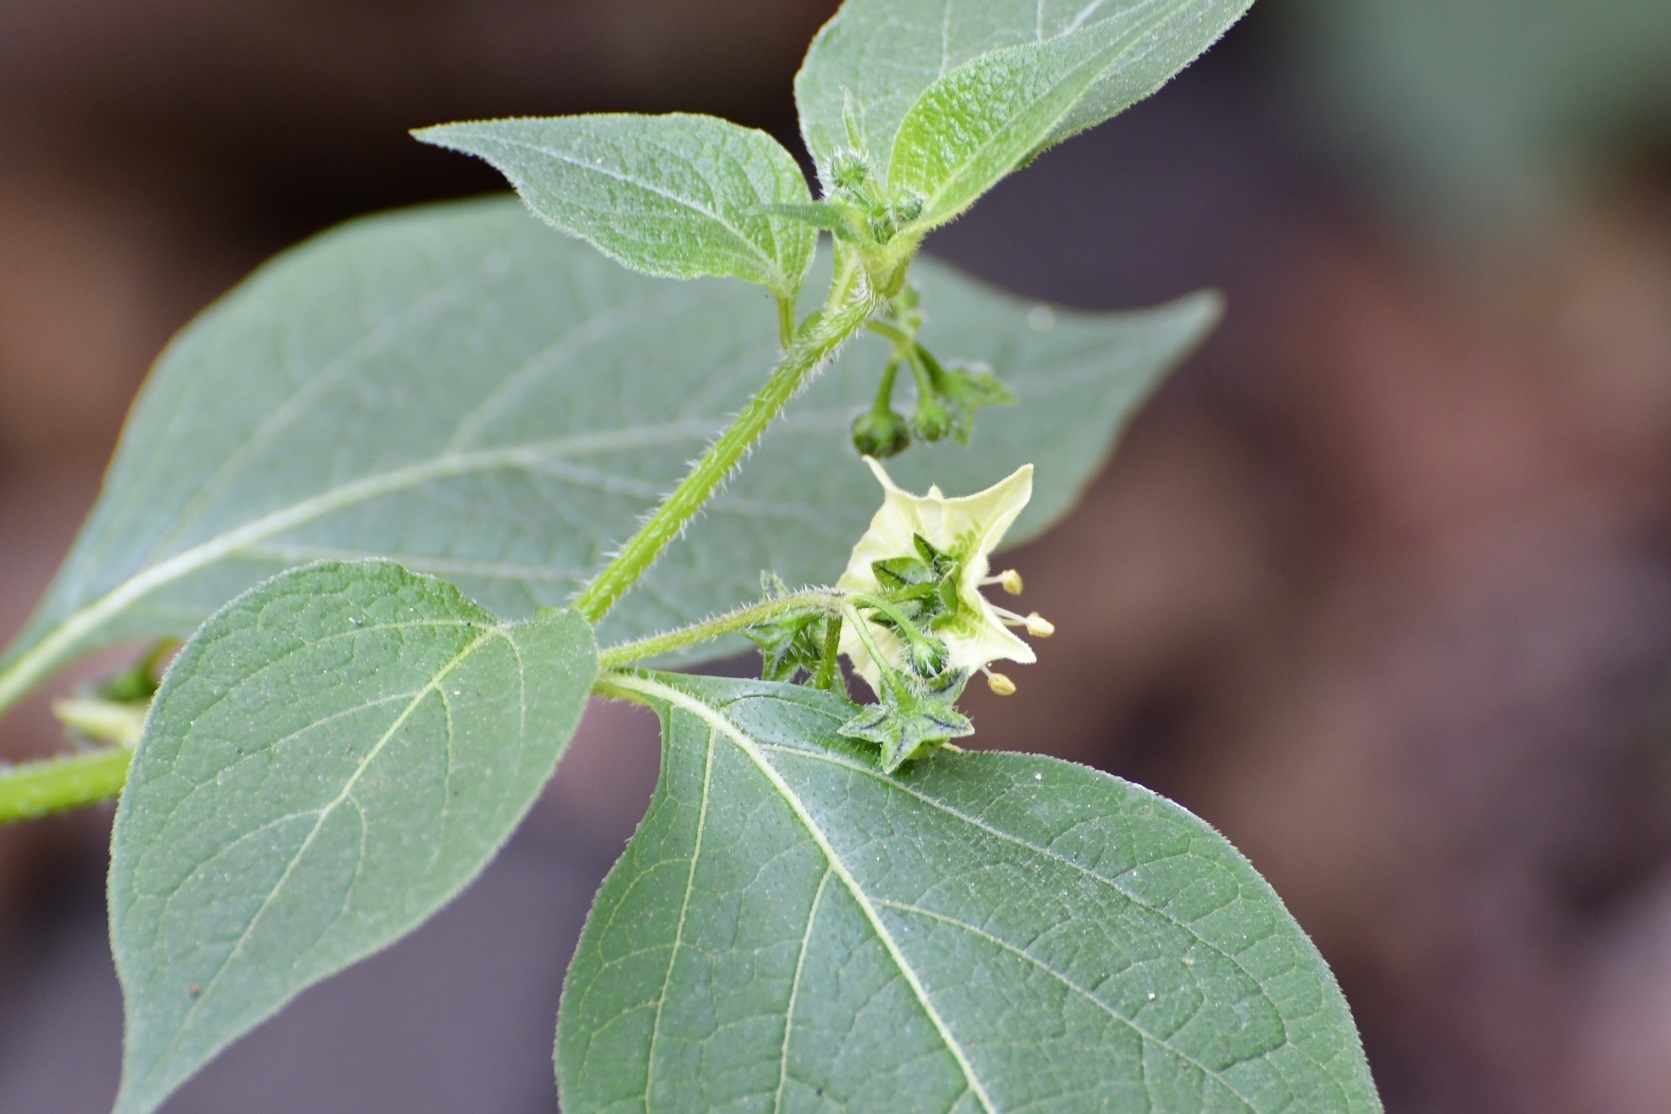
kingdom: Plantae
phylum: Tracheophyta
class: Magnoliopsida
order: Solanales
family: Solanaceae
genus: Jaltomata
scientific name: Jaltomata procumbens
